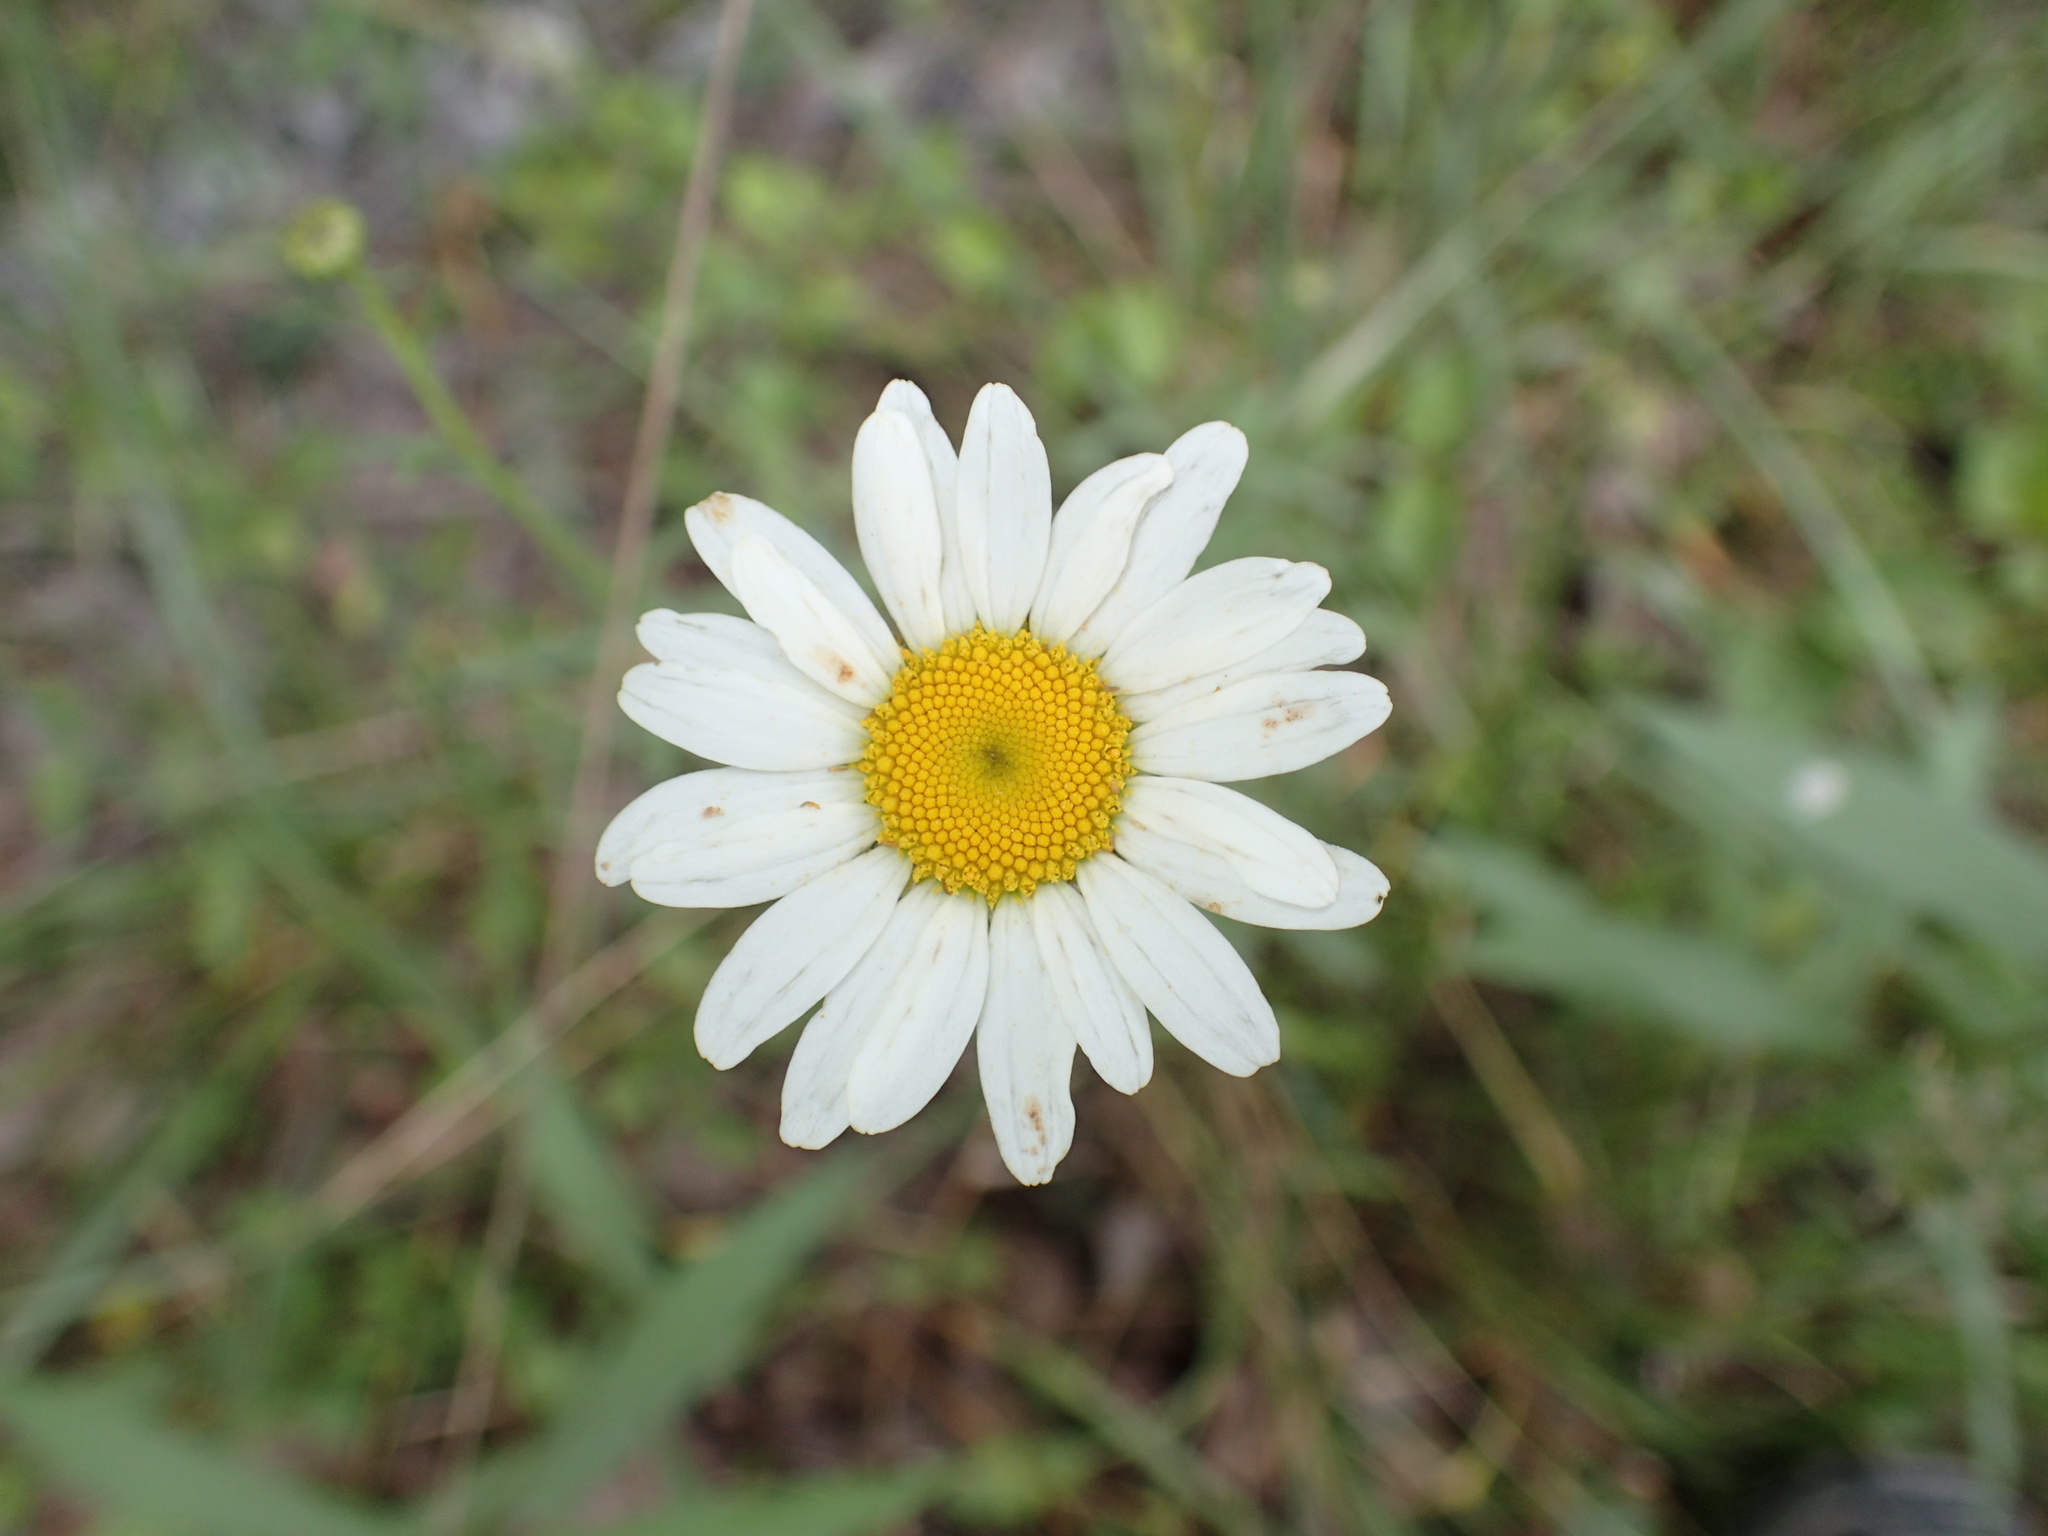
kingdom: Plantae
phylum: Tracheophyta
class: Magnoliopsida
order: Asterales
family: Asteraceae
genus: Leucanthemum
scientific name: Leucanthemum vulgare
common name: Oxeye daisy
